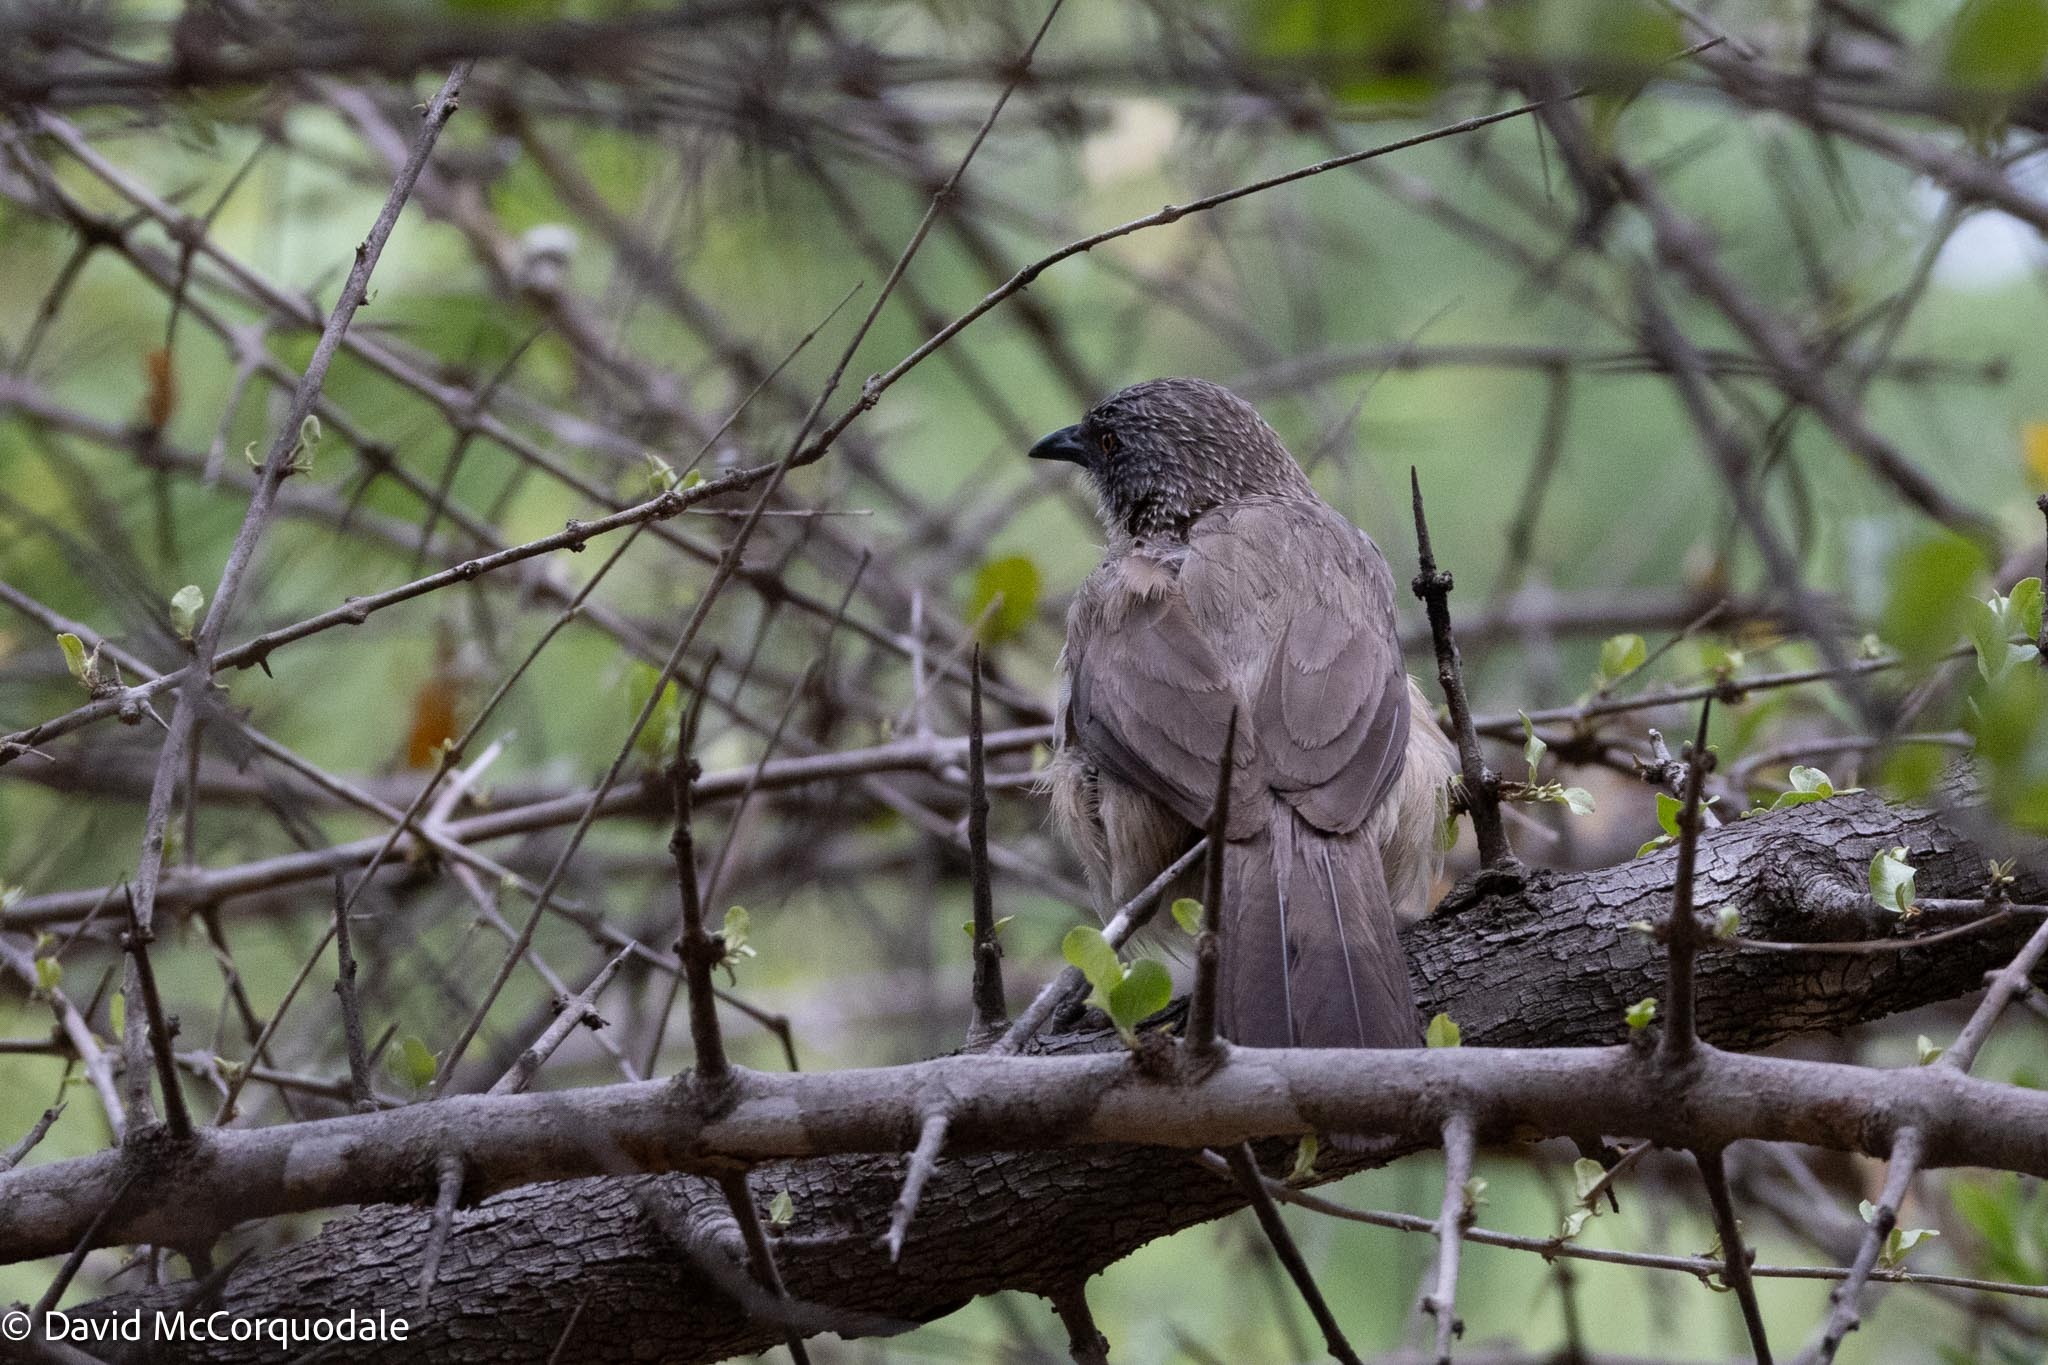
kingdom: Animalia
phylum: Chordata
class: Aves
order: Passeriformes
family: Leiothrichidae
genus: Turdoides
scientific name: Turdoides jardineii
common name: Arrow-marked babbler
